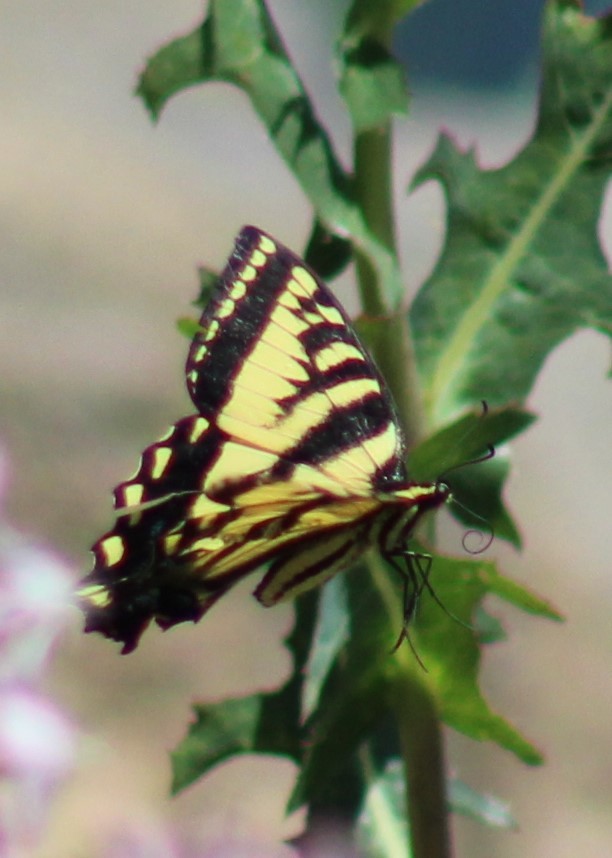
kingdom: Animalia
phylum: Arthropoda
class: Insecta
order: Lepidoptera
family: Papilionidae
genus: Papilio
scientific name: Papilio rutulus
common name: Western tiger swallowtail
